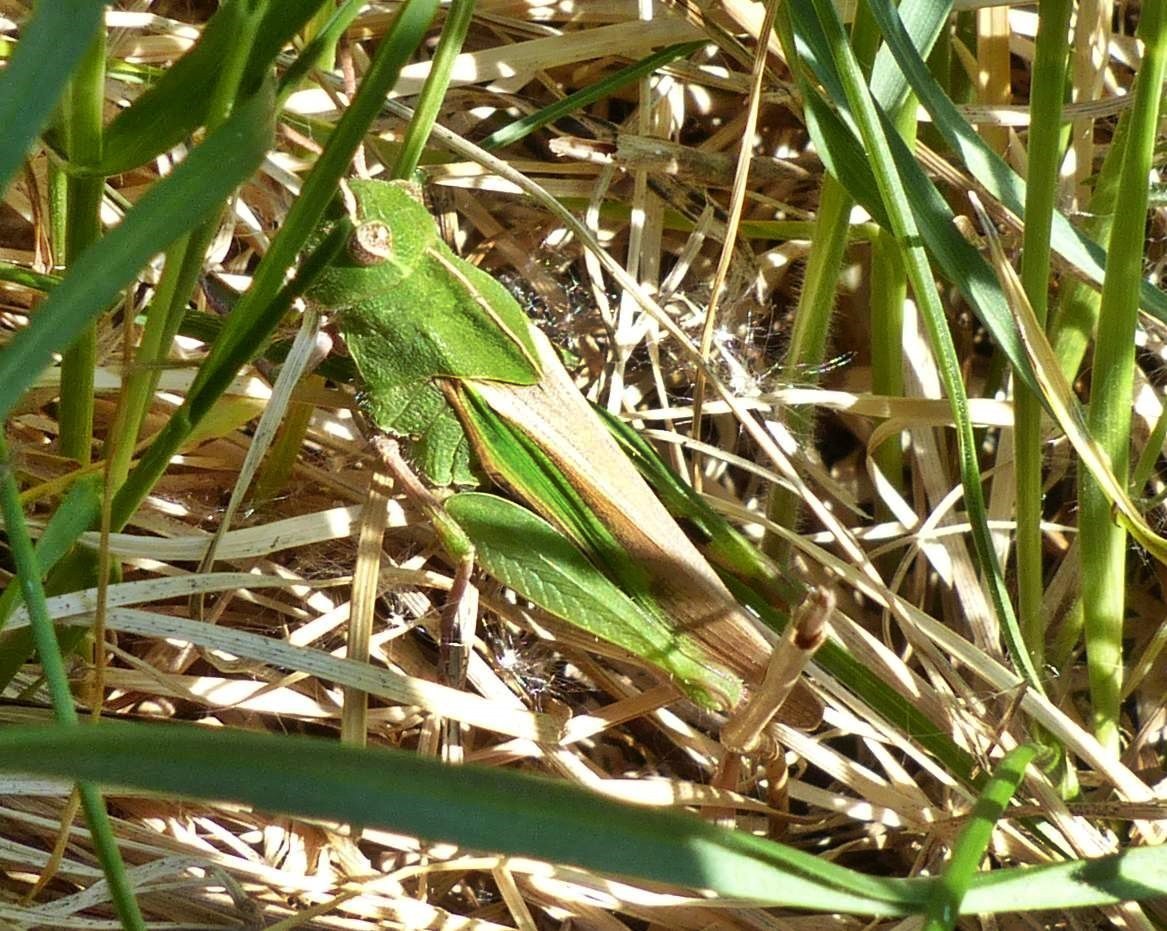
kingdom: Animalia
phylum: Arthropoda
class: Insecta
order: Orthoptera
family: Acrididae
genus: Chortophaga
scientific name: Chortophaga viridifasciata
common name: Green-striped grasshopper
